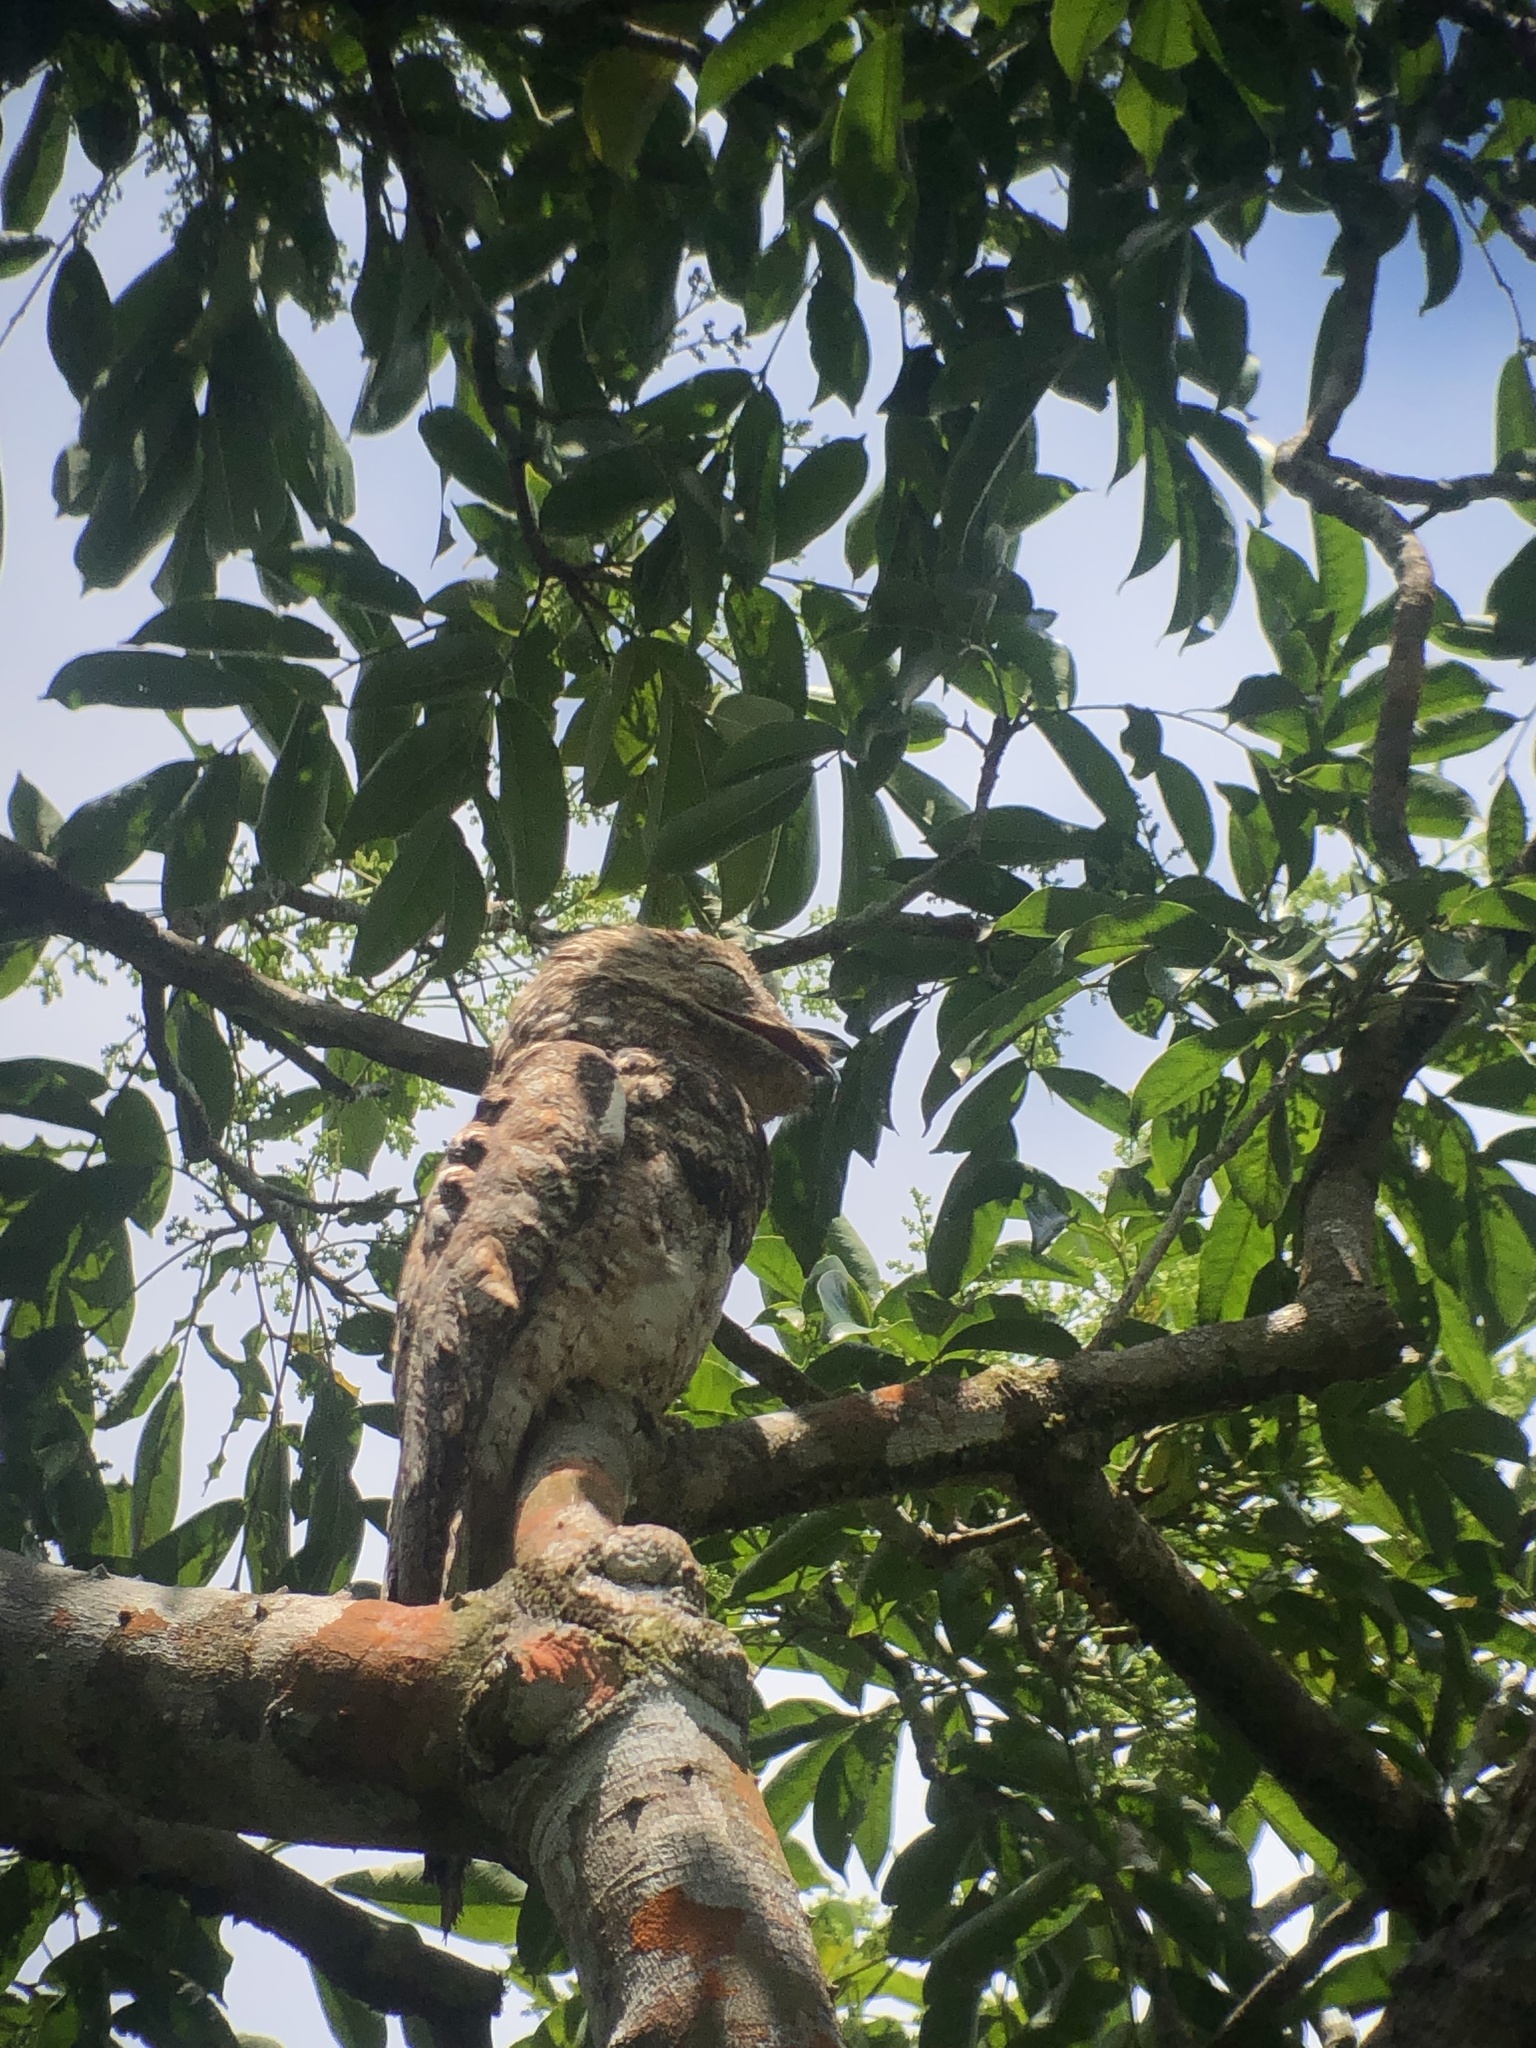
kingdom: Animalia
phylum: Chordata
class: Aves
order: Nyctibiiformes
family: Nyctibiidae
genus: Nyctibius
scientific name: Nyctibius grandis
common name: Great potoo
